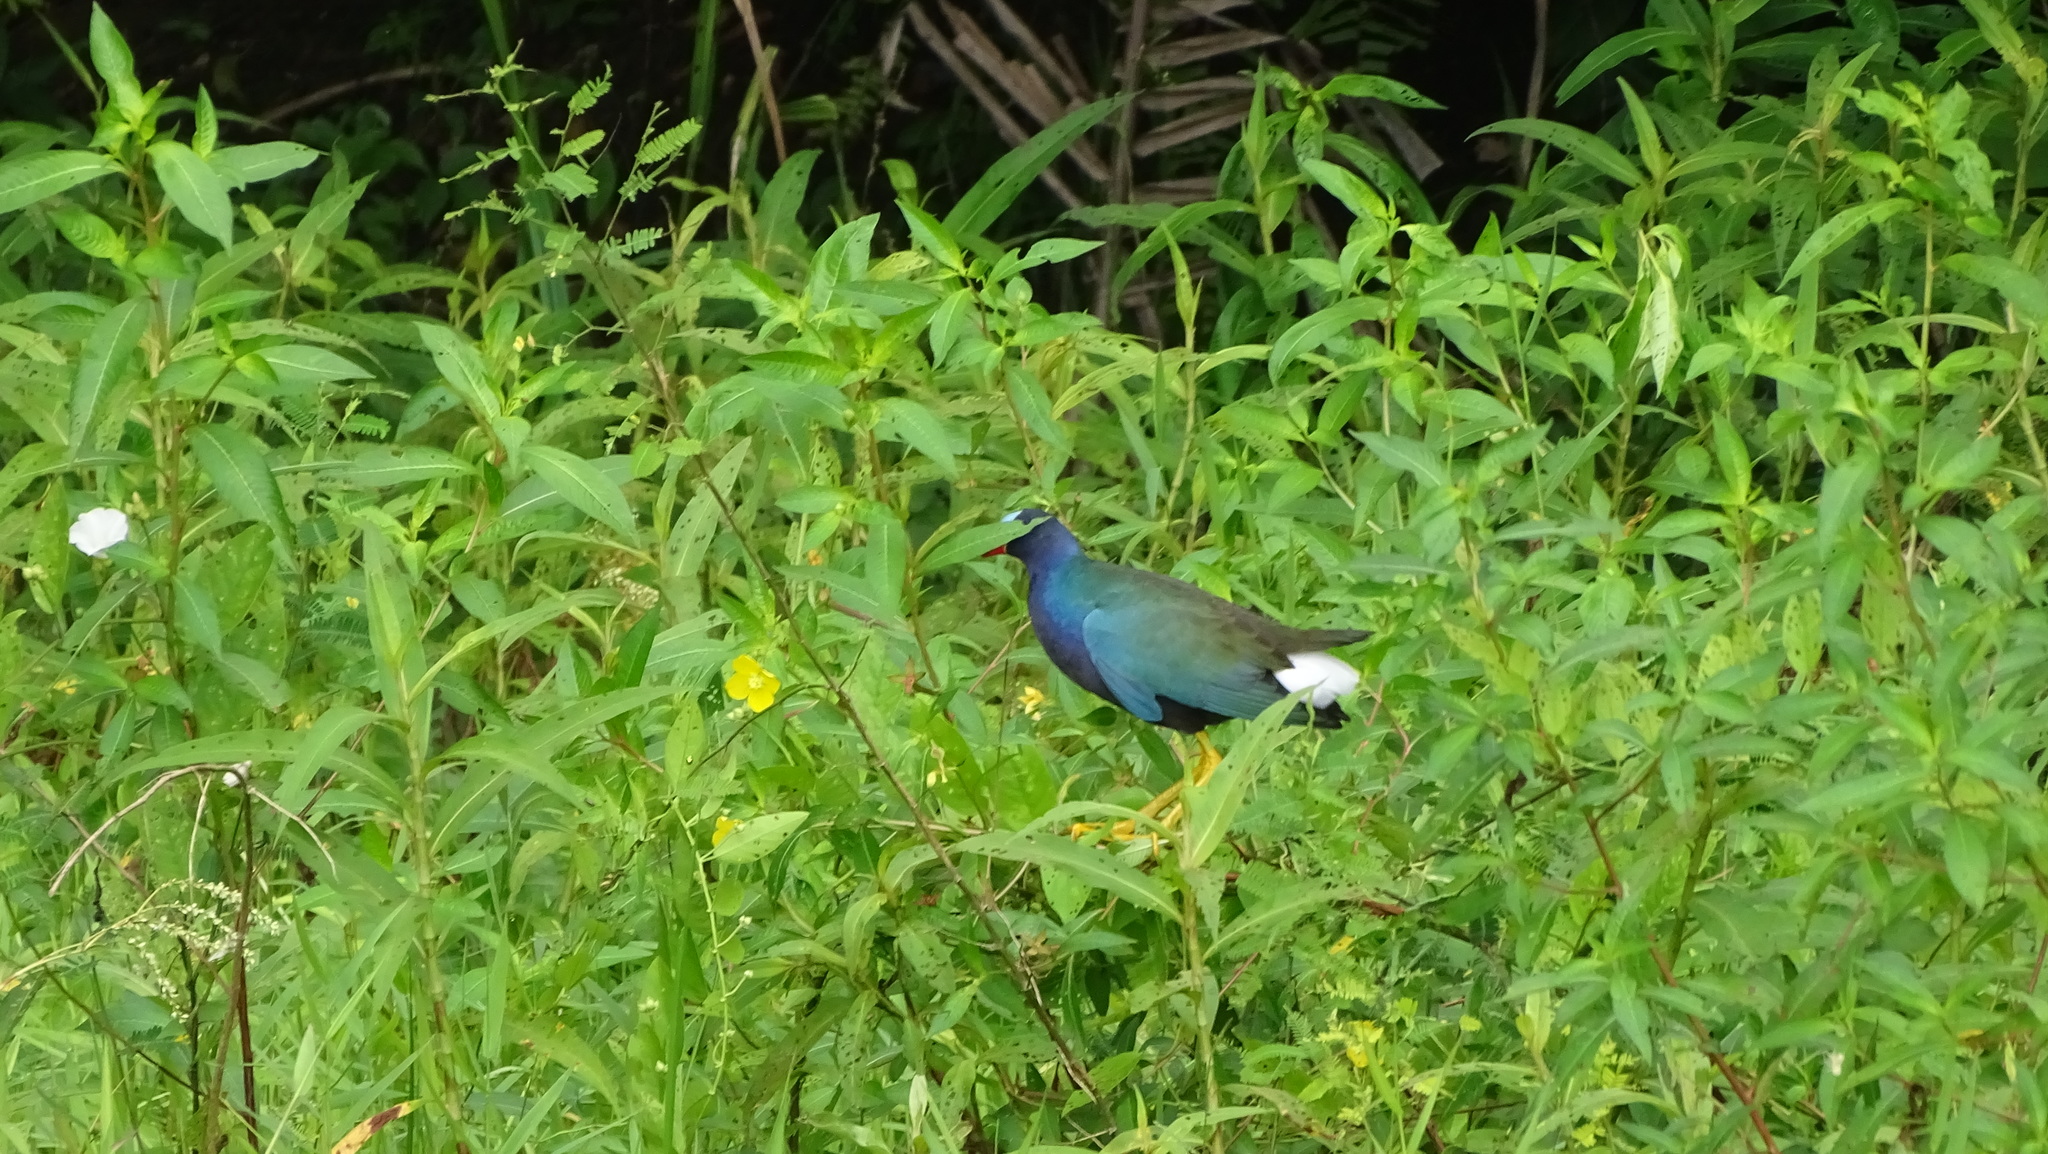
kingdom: Animalia
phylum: Chordata
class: Aves
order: Gruiformes
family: Rallidae
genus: Porphyrio
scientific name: Porphyrio martinica
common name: Purple gallinule
